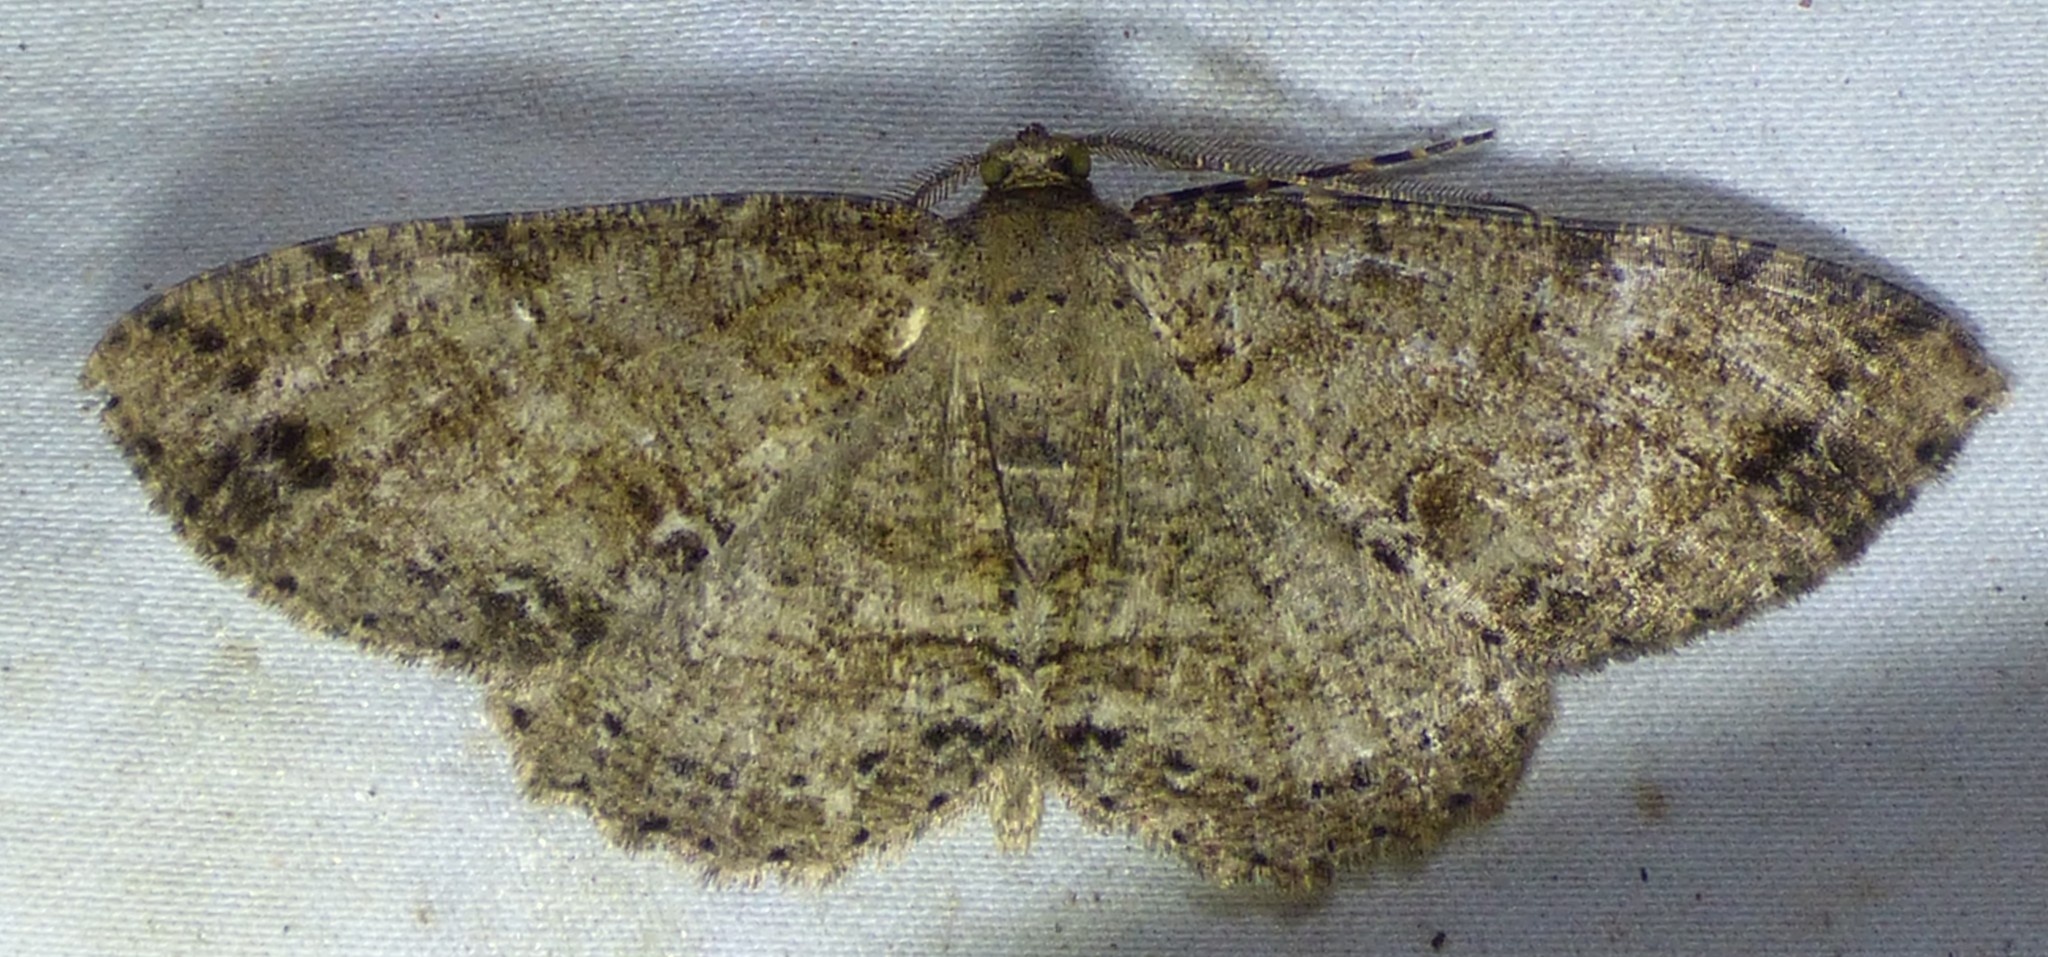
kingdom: Animalia
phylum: Arthropoda
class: Insecta
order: Lepidoptera
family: Geometridae
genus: Melanolophia
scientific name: Melanolophia canadaria
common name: Canadian melanolophia
